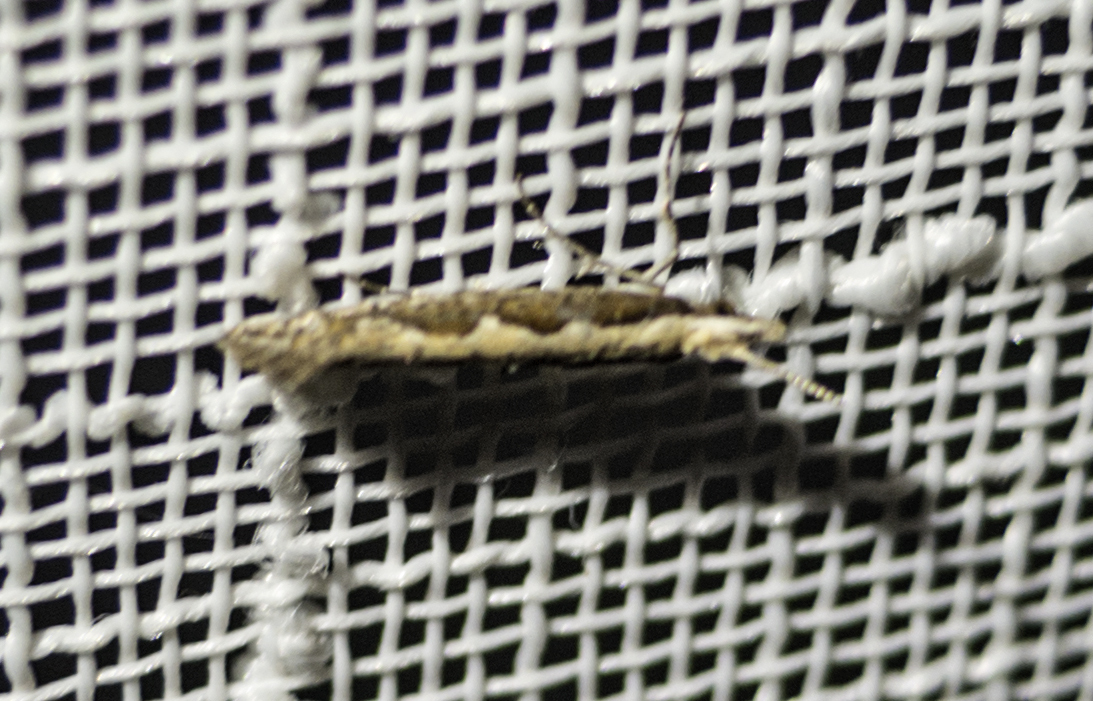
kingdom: Animalia
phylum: Arthropoda
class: Insecta
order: Lepidoptera
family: Plutellidae
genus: Plutella
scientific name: Plutella xylostella
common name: Diamond-back moth
